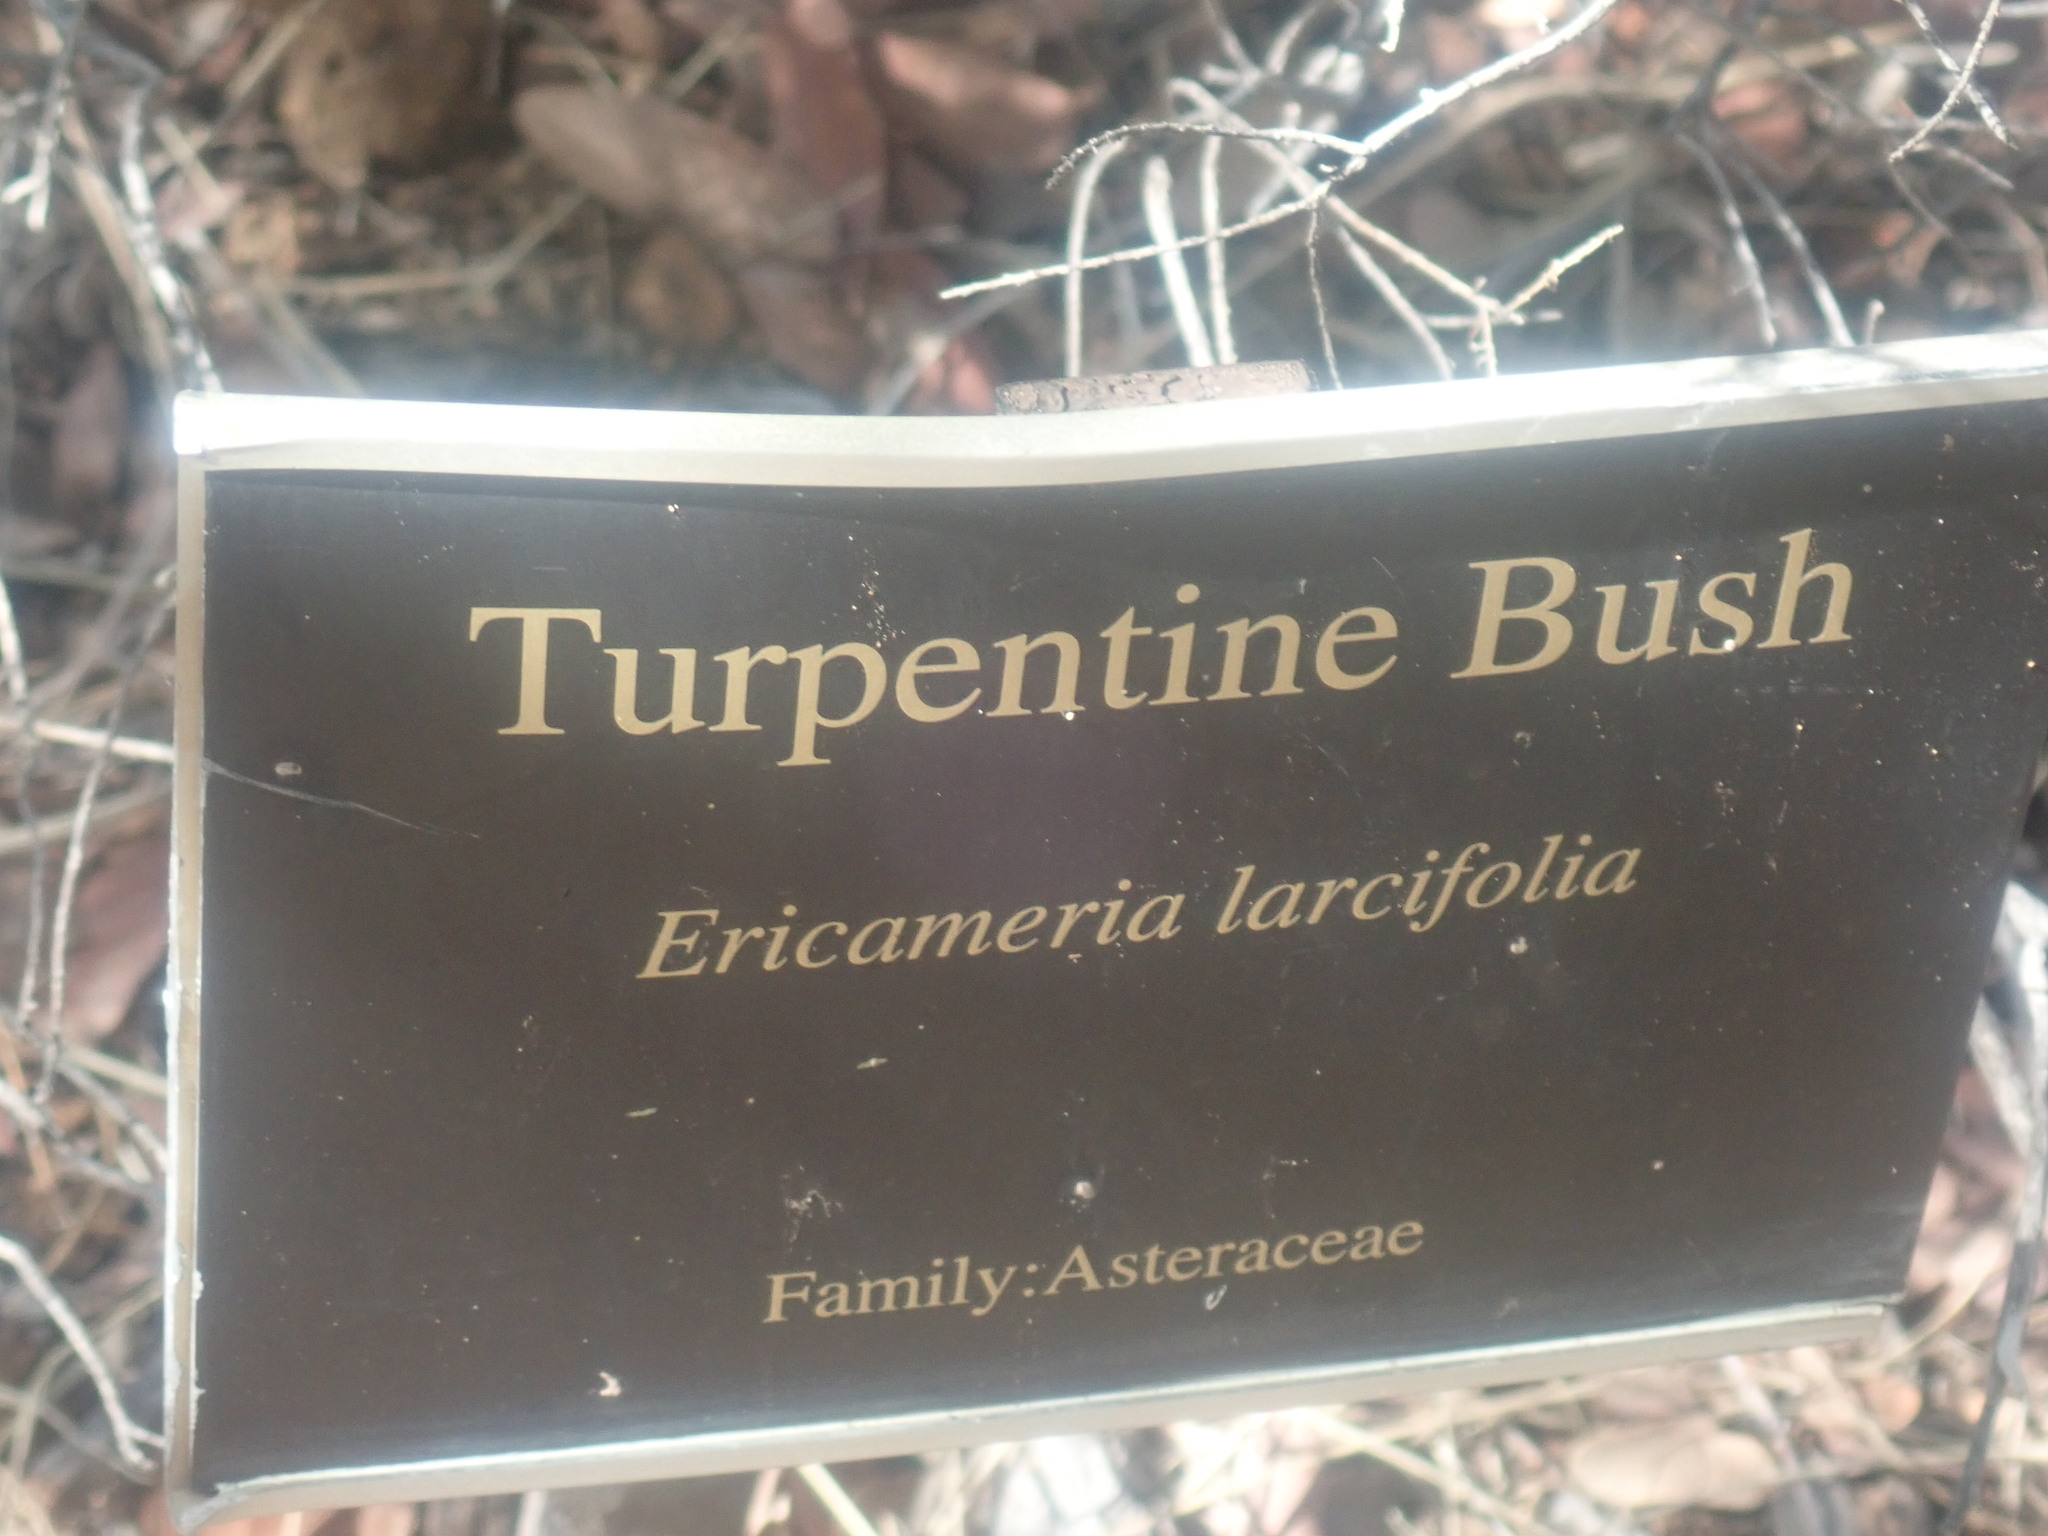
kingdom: Plantae
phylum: Tracheophyta
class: Magnoliopsida
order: Asterales
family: Asteraceae
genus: Ericameria
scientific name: Ericameria laricifolia
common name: Turpentine-bush
